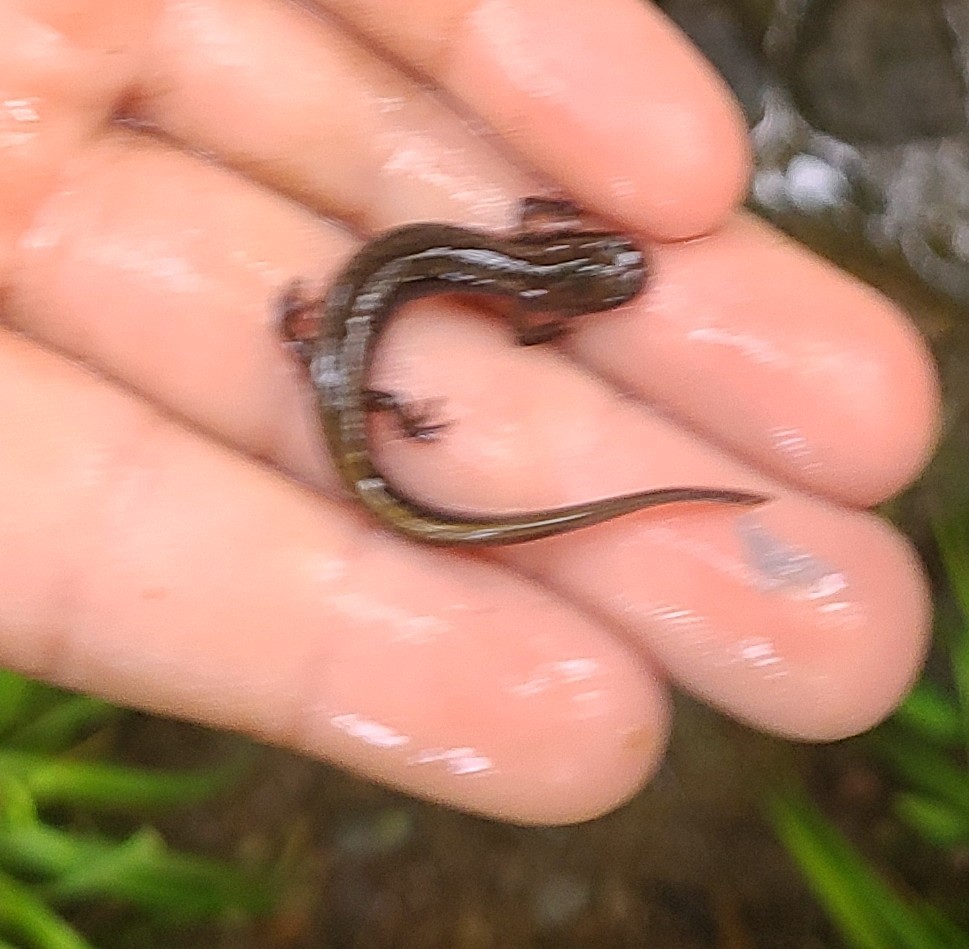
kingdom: Animalia
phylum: Chordata
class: Amphibia
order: Caudata
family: Plethodontidae
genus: Eurycea
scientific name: Eurycea bislineata
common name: Northern two-lined salamander
